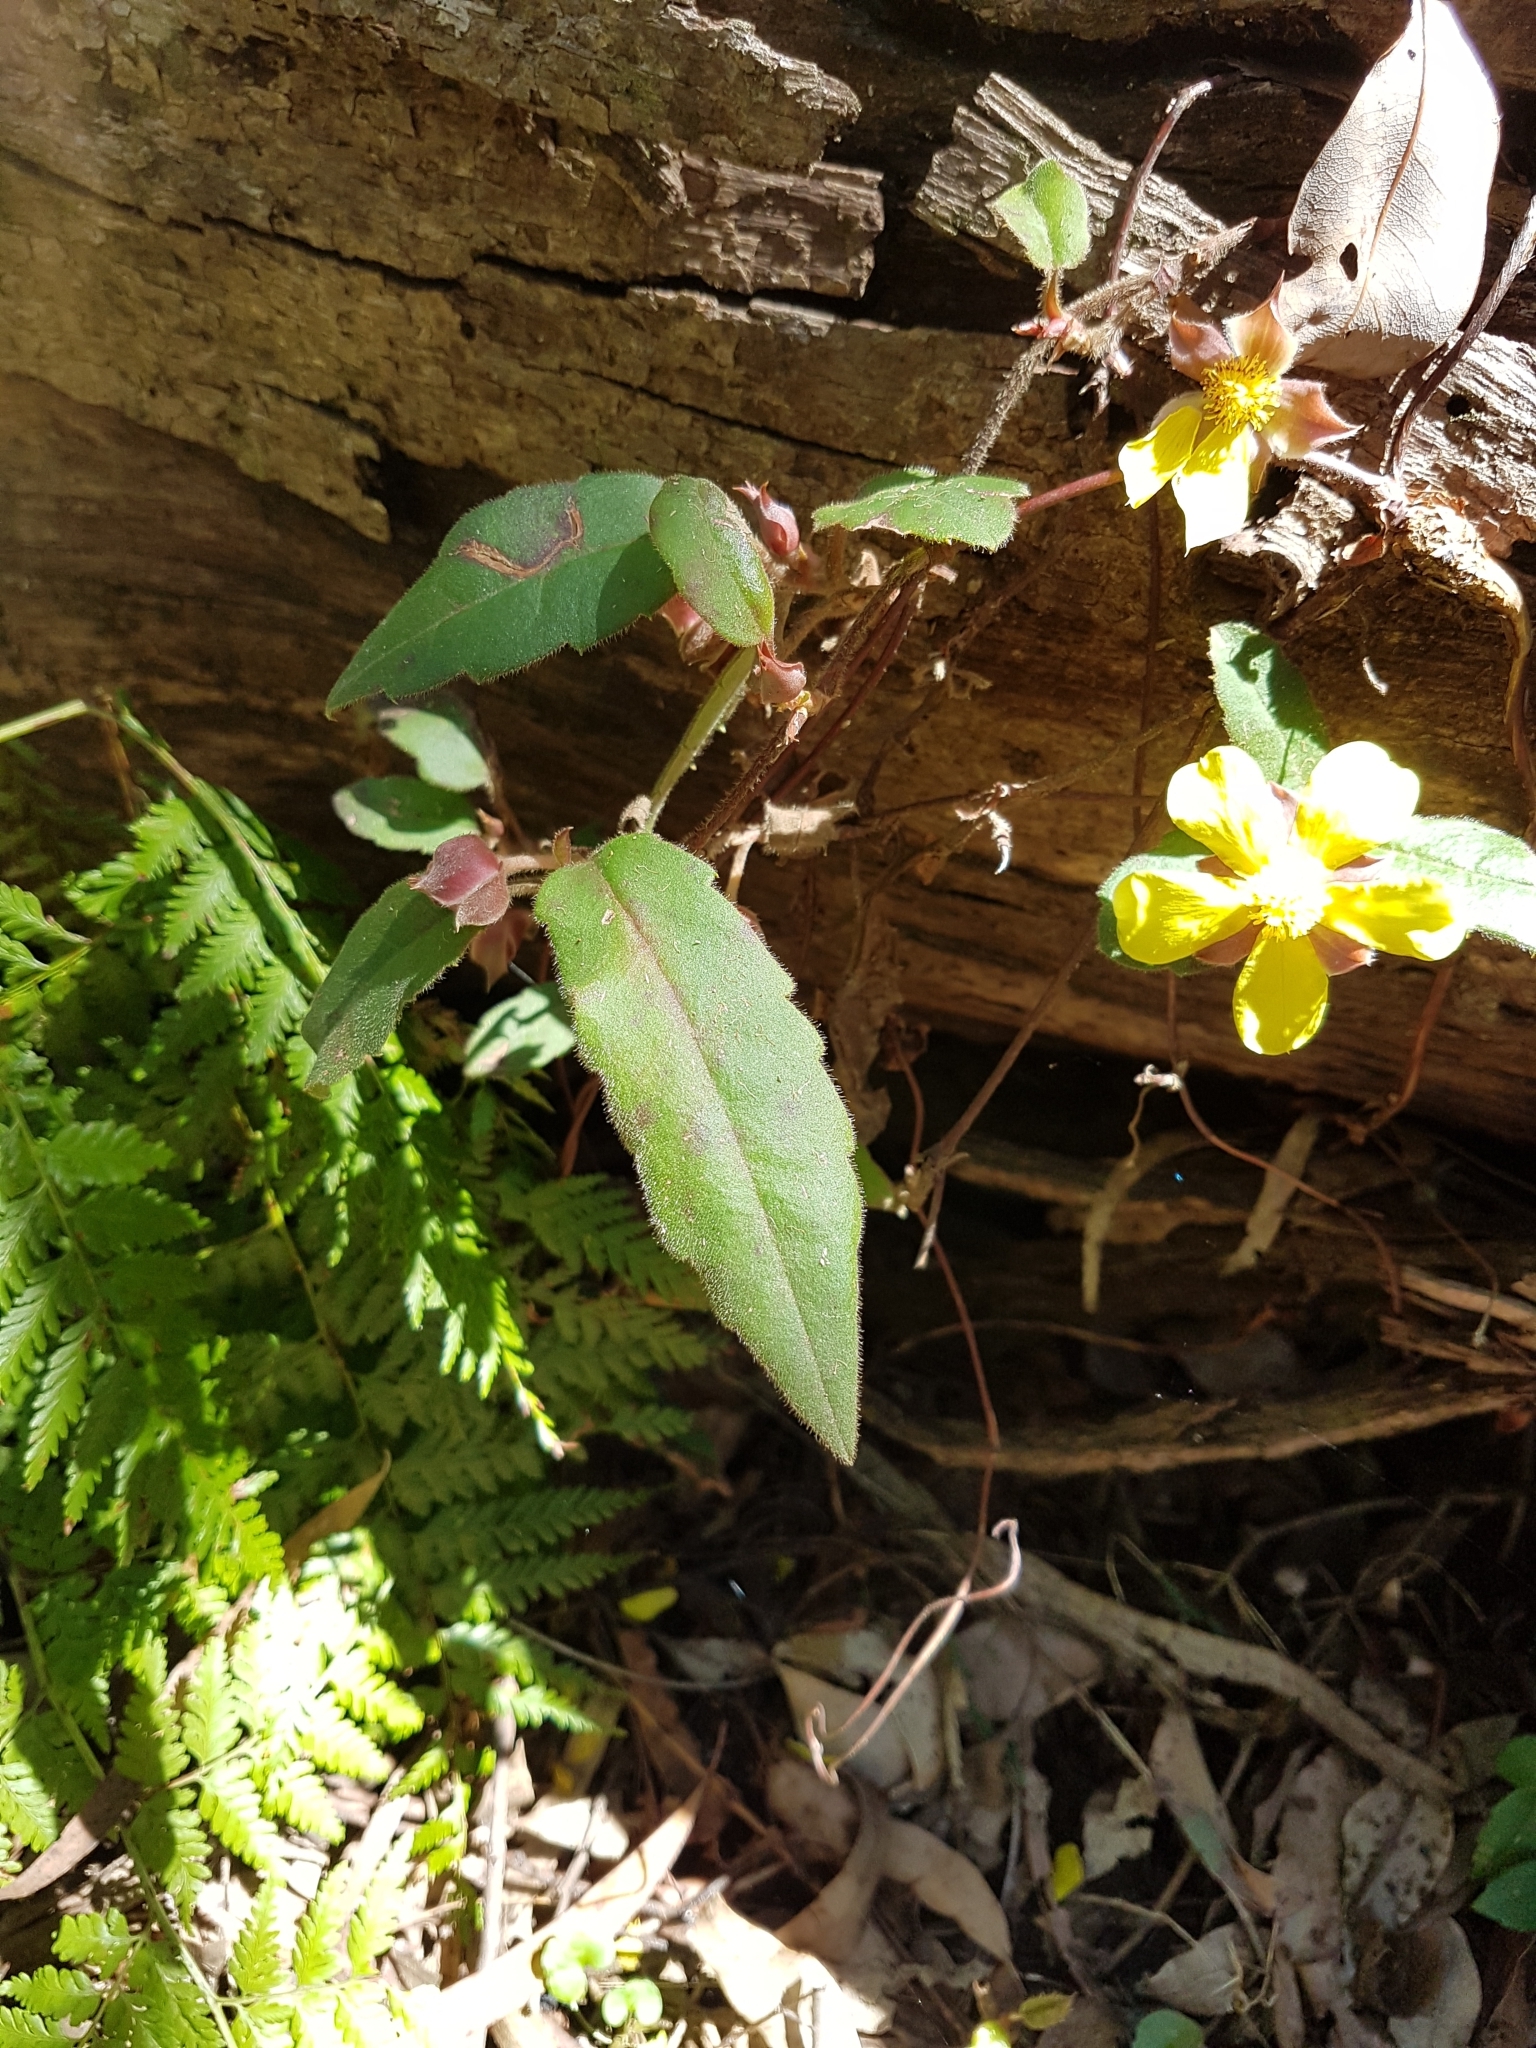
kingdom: Plantae
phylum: Tracheophyta
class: Magnoliopsida
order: Dilleniales
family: Dilleniaceae
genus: Hibbertia
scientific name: Hibbertia dentata
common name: Trailing guinea-flower
